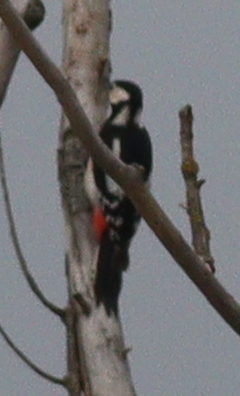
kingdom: Animalia
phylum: Chordata
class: Aves
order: Piciformes
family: Picidae
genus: Dendrocopos
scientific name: Dendrocopos major
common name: Great spotted woodpecker
